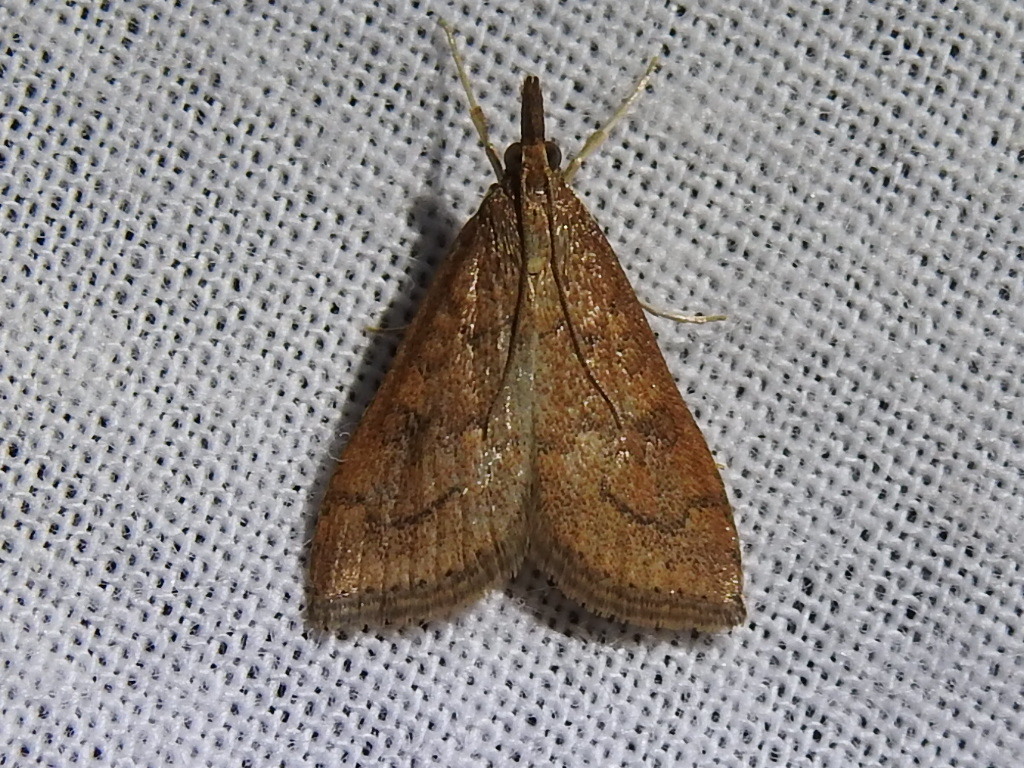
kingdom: Animalia
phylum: Arthropoda
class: Insecta
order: Lepidoptera
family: Crambidae
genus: Udea
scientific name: Udea rubigalis
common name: Celery leaftier moth
